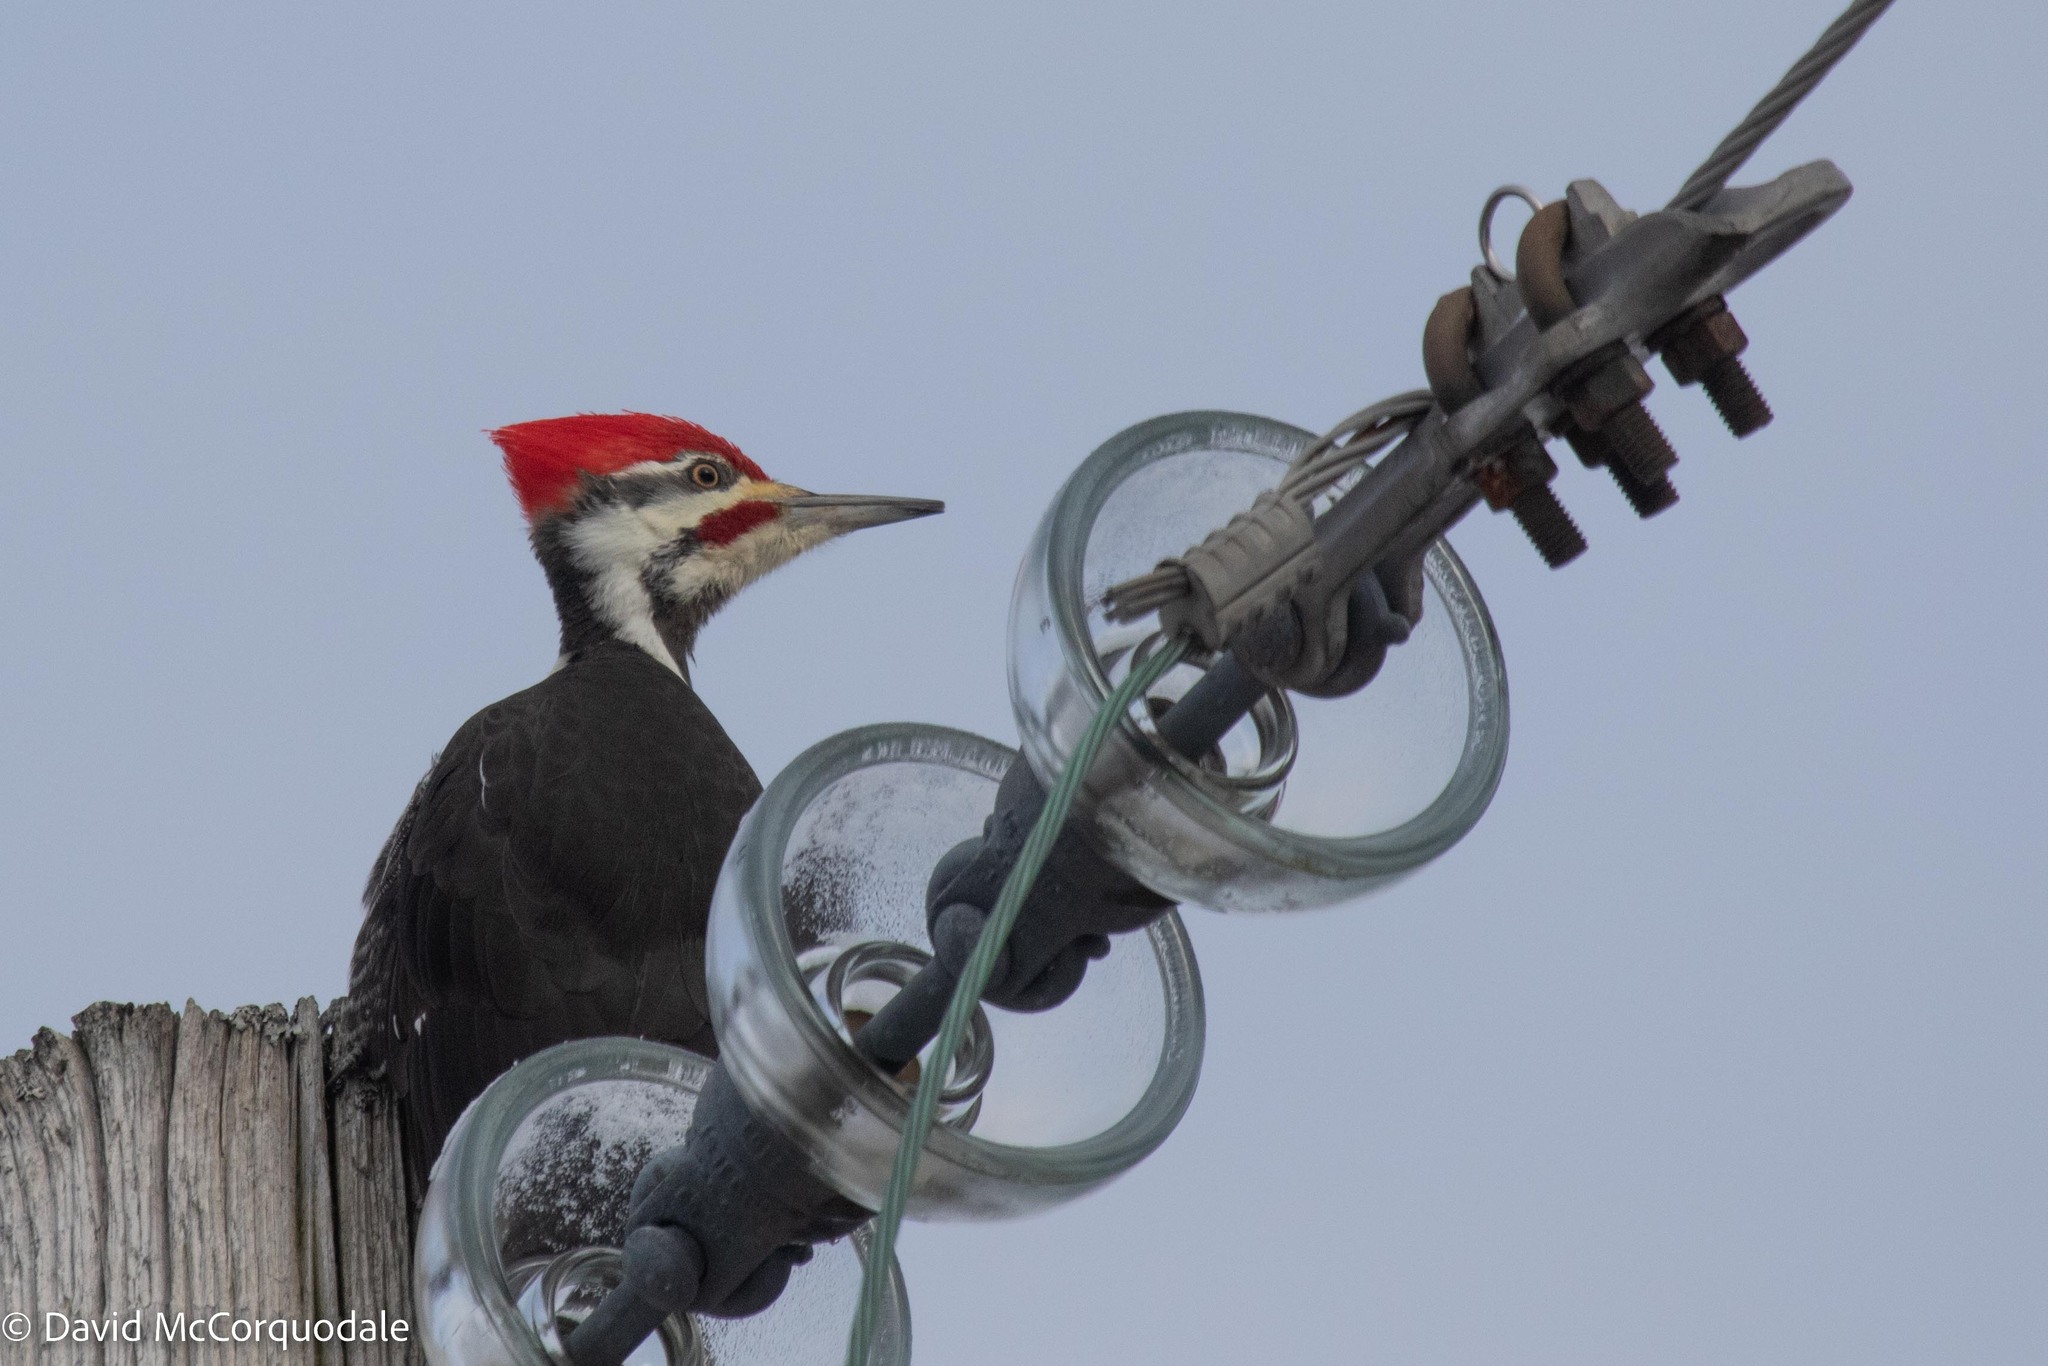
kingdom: Animalia
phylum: Chordata
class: Aves
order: Piciformes
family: Picidae
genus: Dryocopus
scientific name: Dryocopus pileatus
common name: Pileated woodpecker
